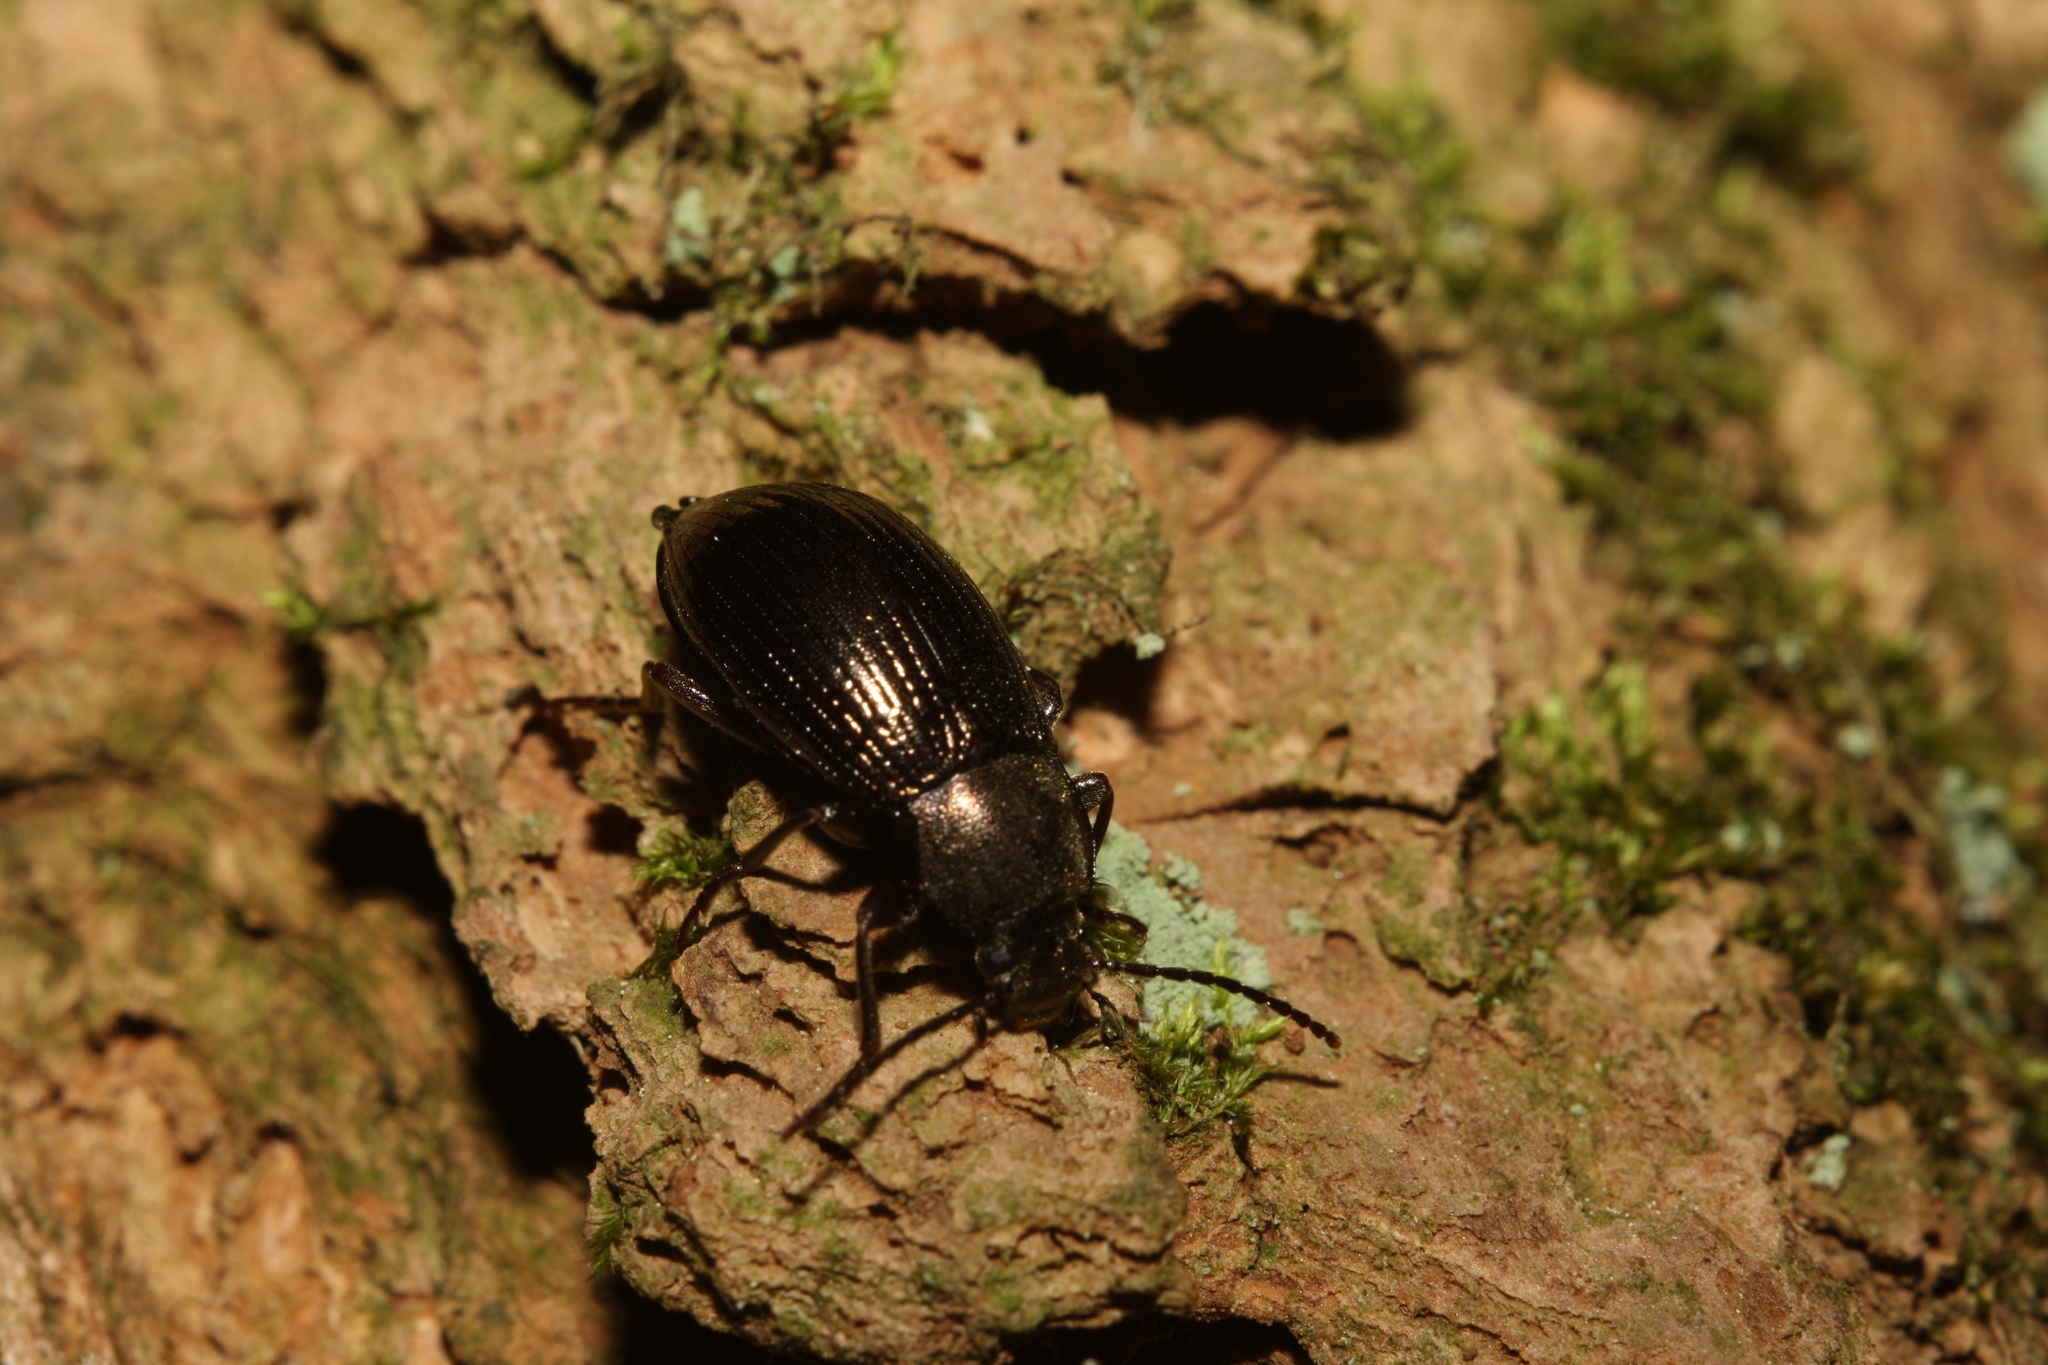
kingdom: Animalia
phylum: Arthropoda
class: Insecta
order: Coleoptera
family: Tenebrionidae
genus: Stenomax
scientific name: Stenomax aeneus
